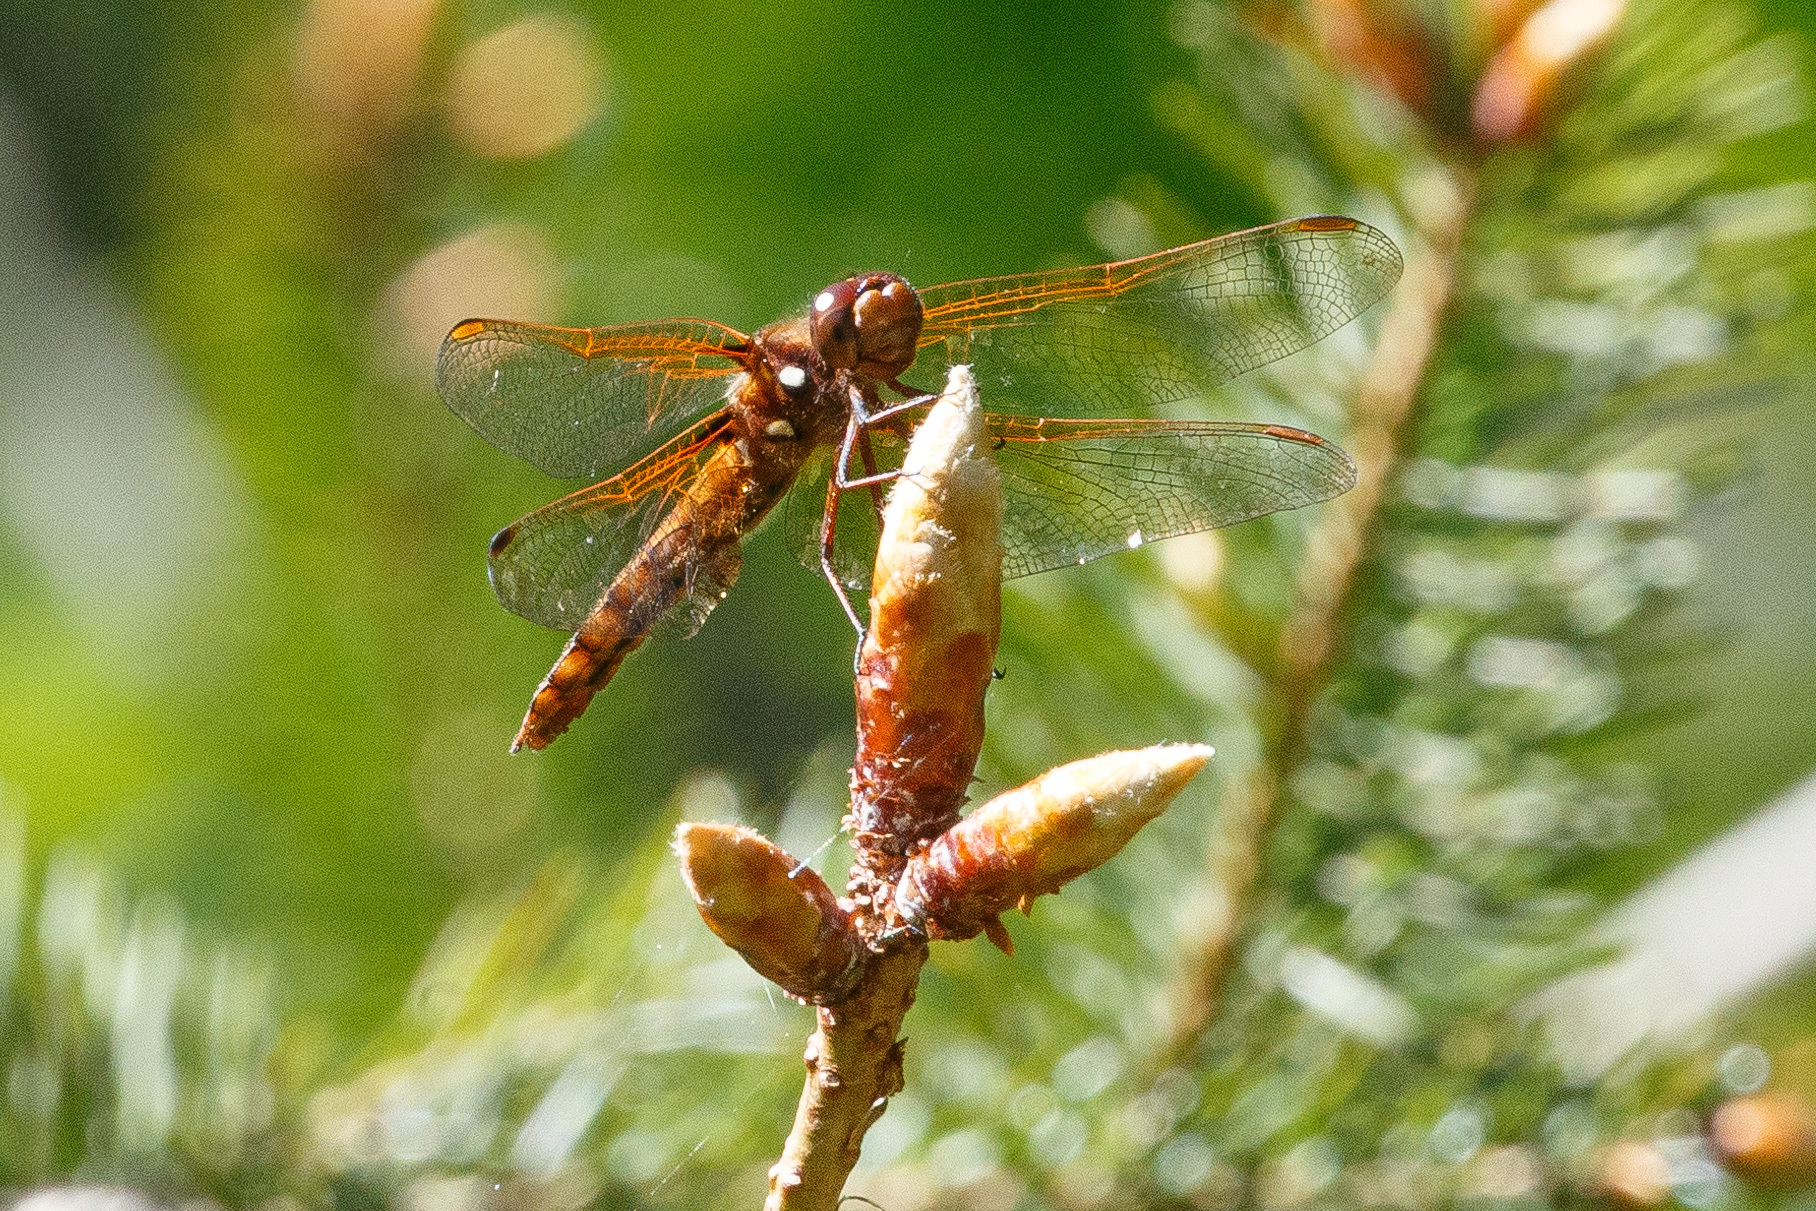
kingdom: Animalia
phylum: Arthropoda
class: Insecta
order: Odonata
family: Libellulidae
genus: Sympetrum
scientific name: Sympetrum illotum
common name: Cardinal meadowhawk
